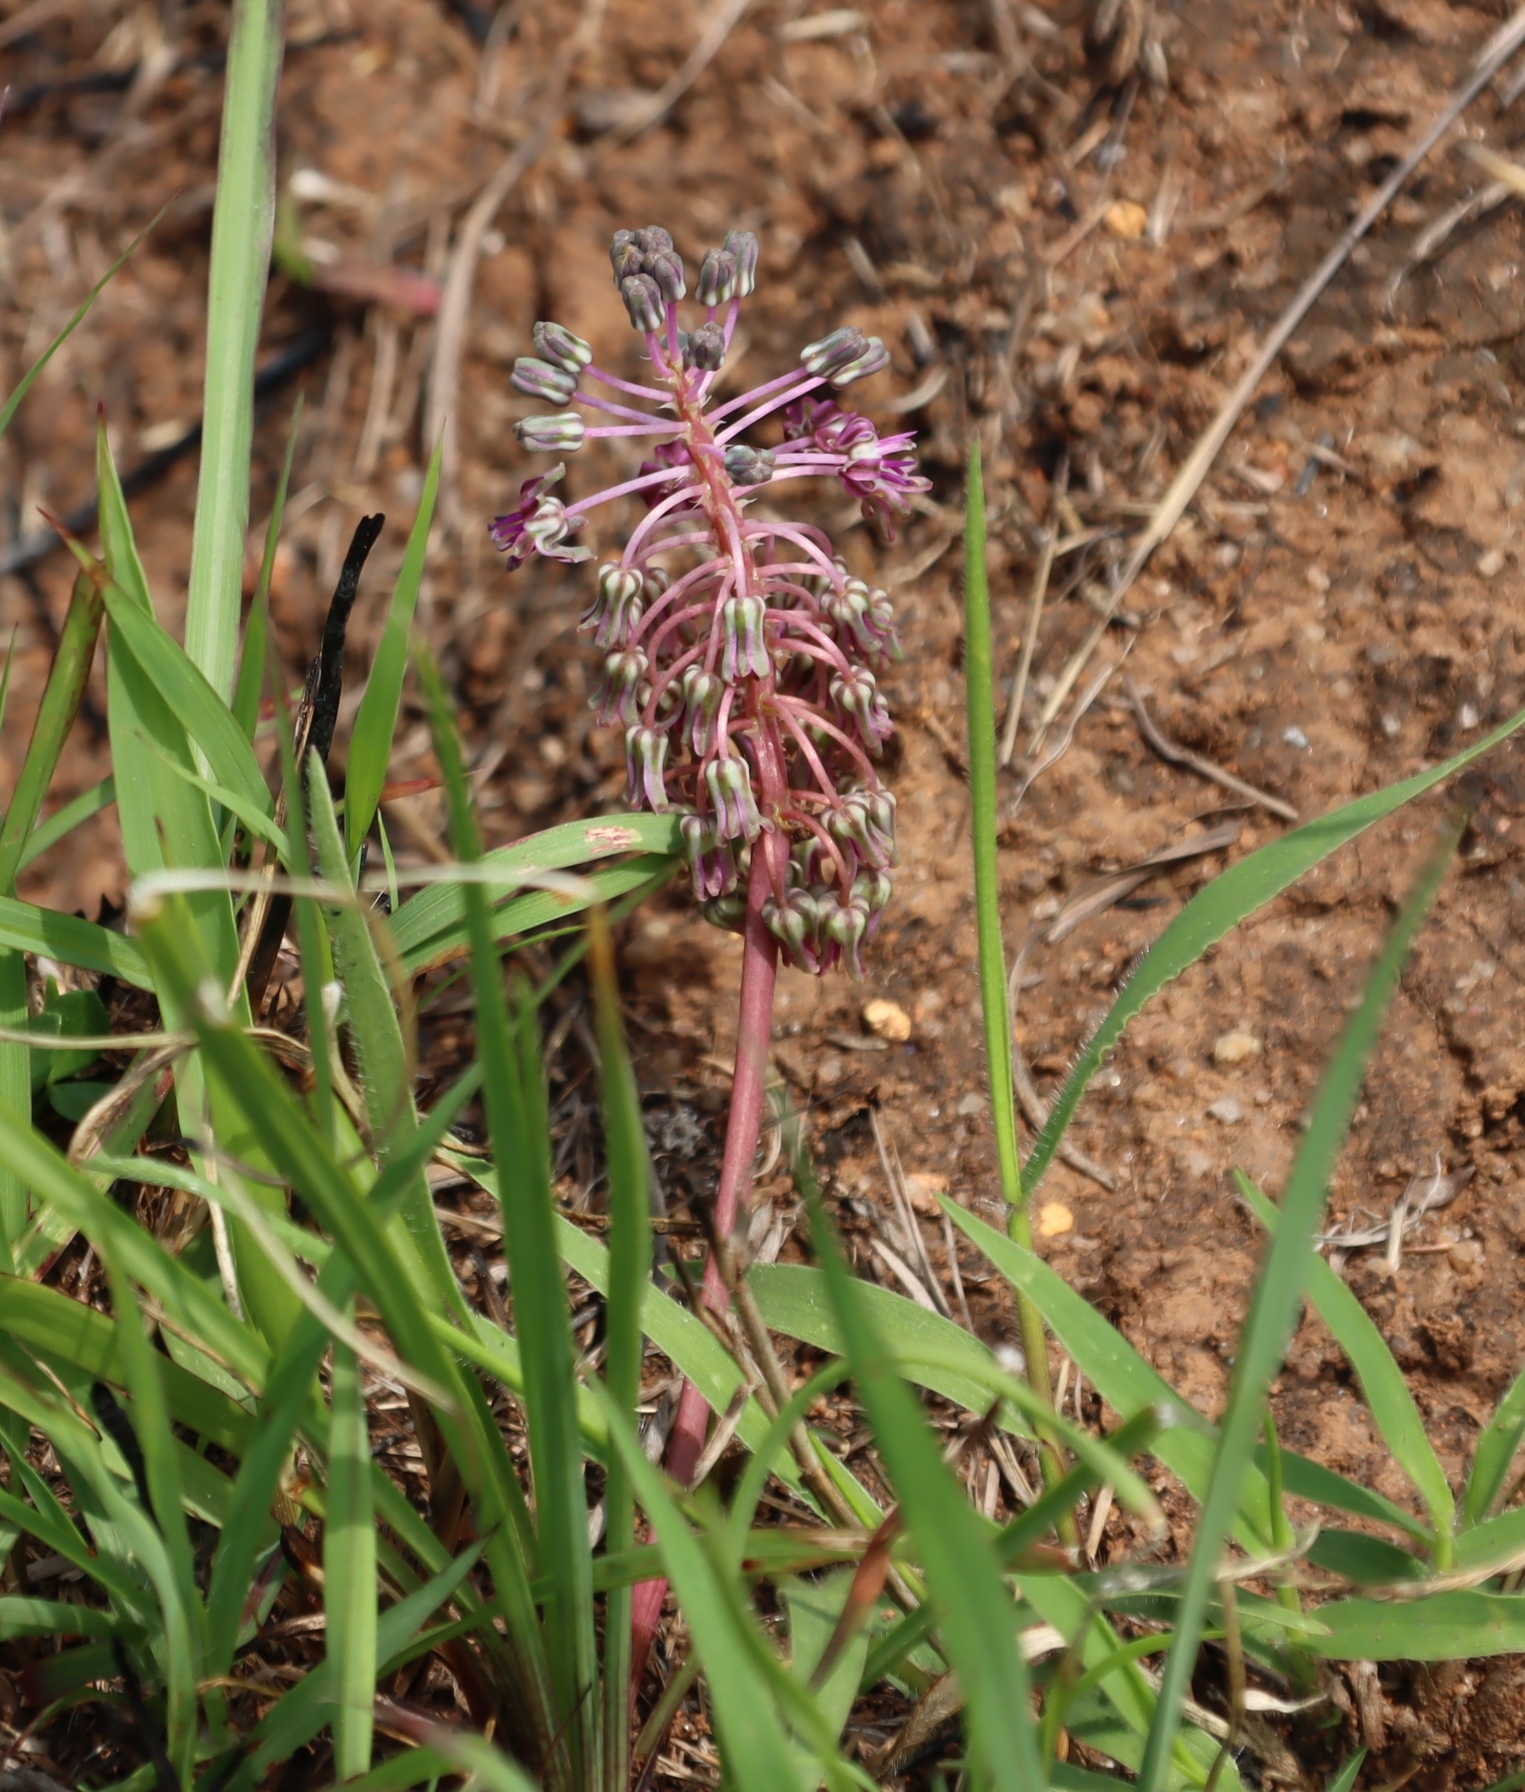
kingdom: Plantae
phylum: Tracheophyta
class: Liliopsida
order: Asparagales
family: Asparagaceae
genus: Ledebouria
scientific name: Ledebouria leptophylla
